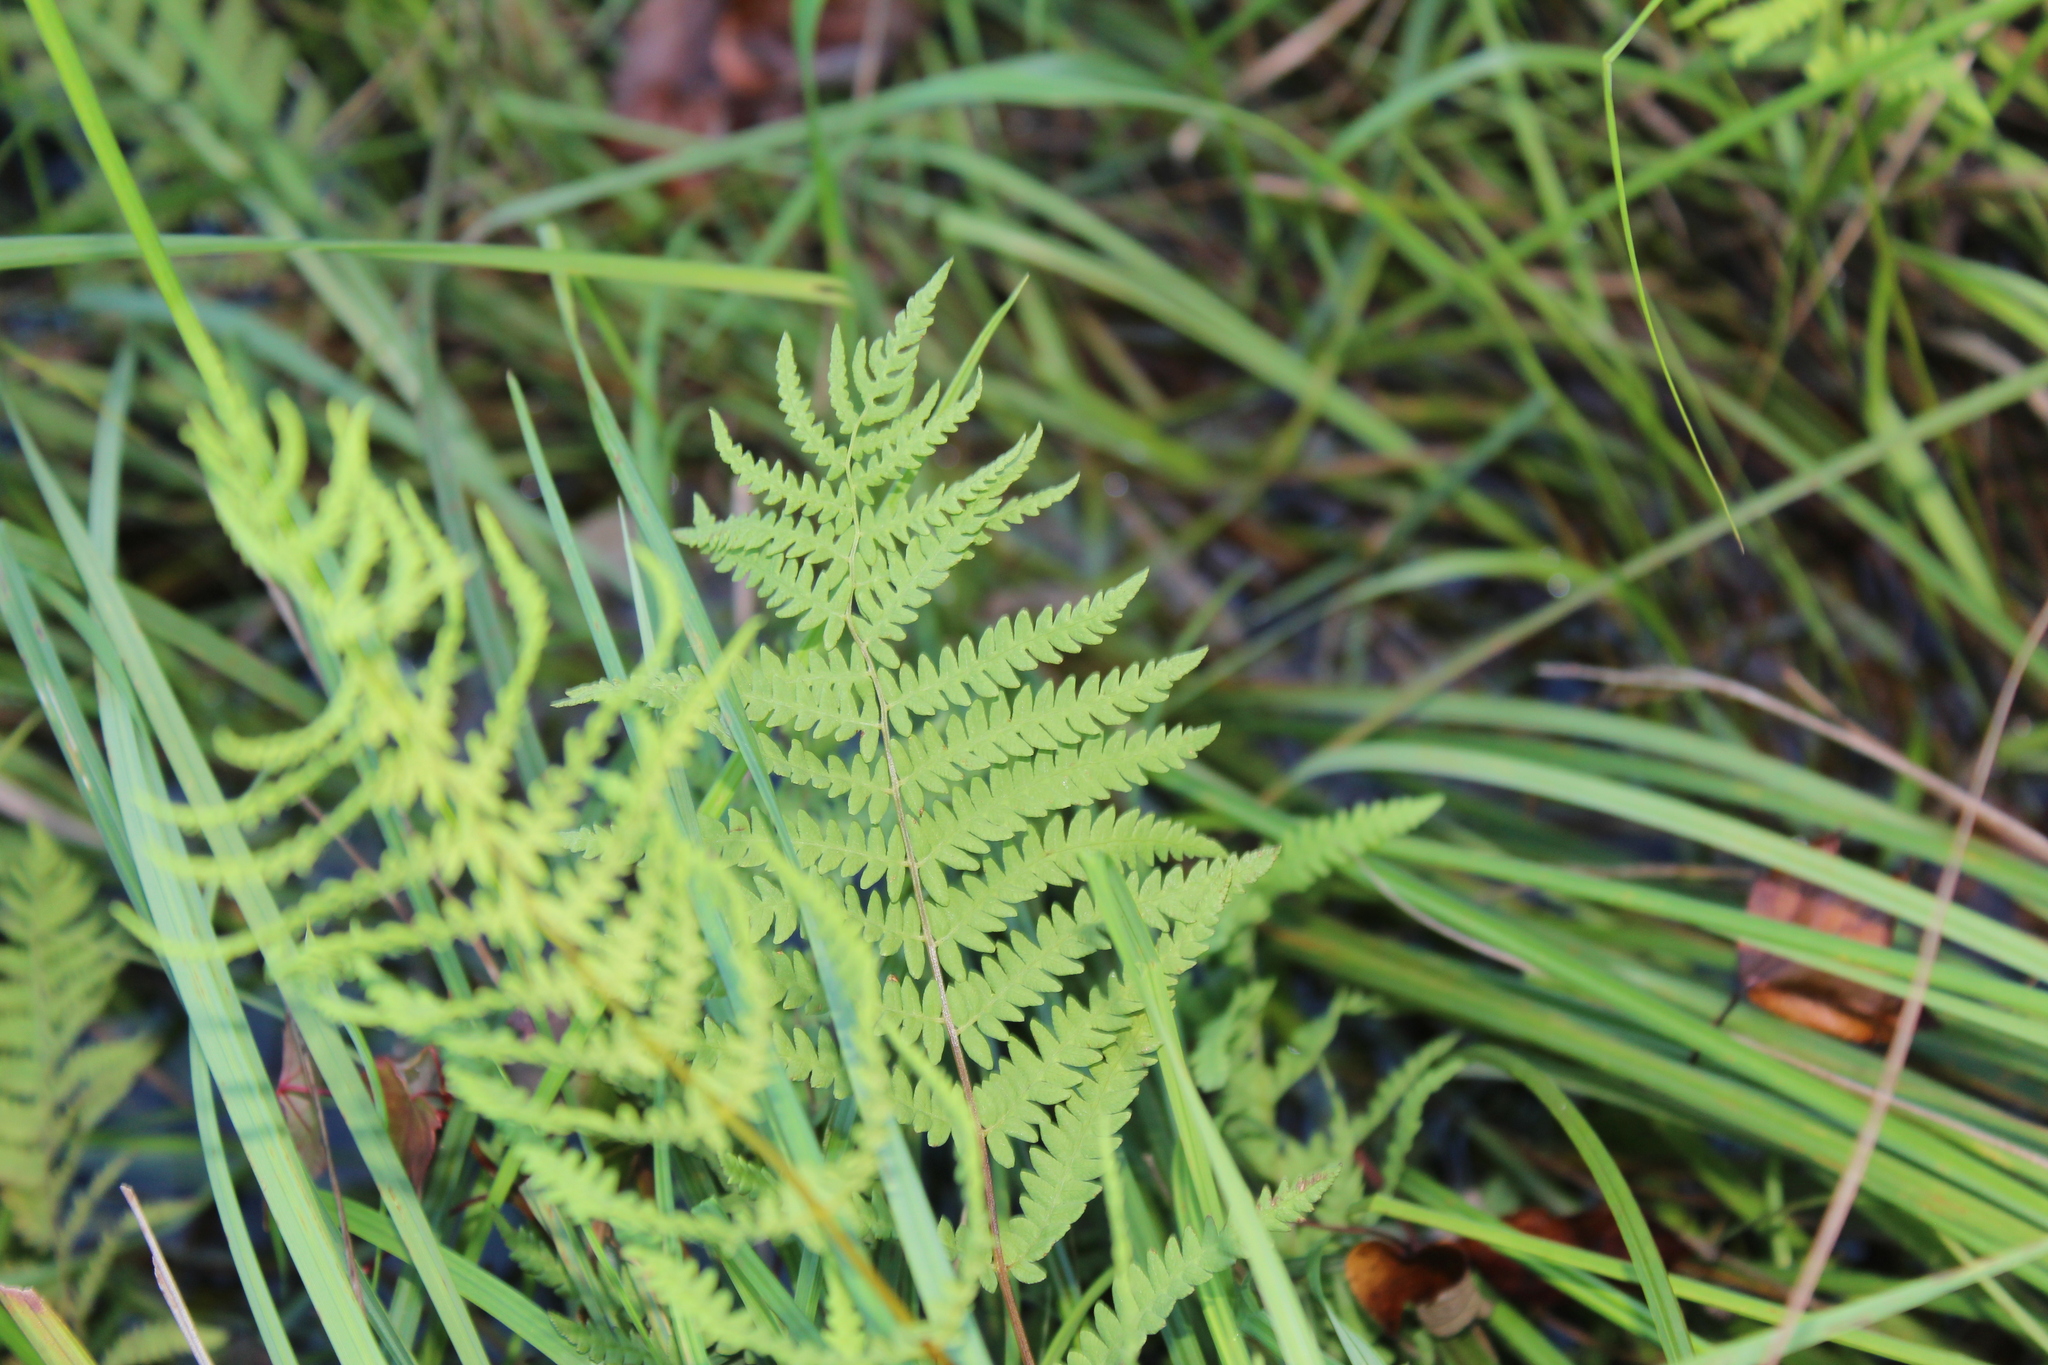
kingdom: Plantae
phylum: Tracheophyta
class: Polypodiopsida
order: Polypodiales
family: Thelypteridaceae
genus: Thelypteris
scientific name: Thelypteris palustris
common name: Marsh fern
